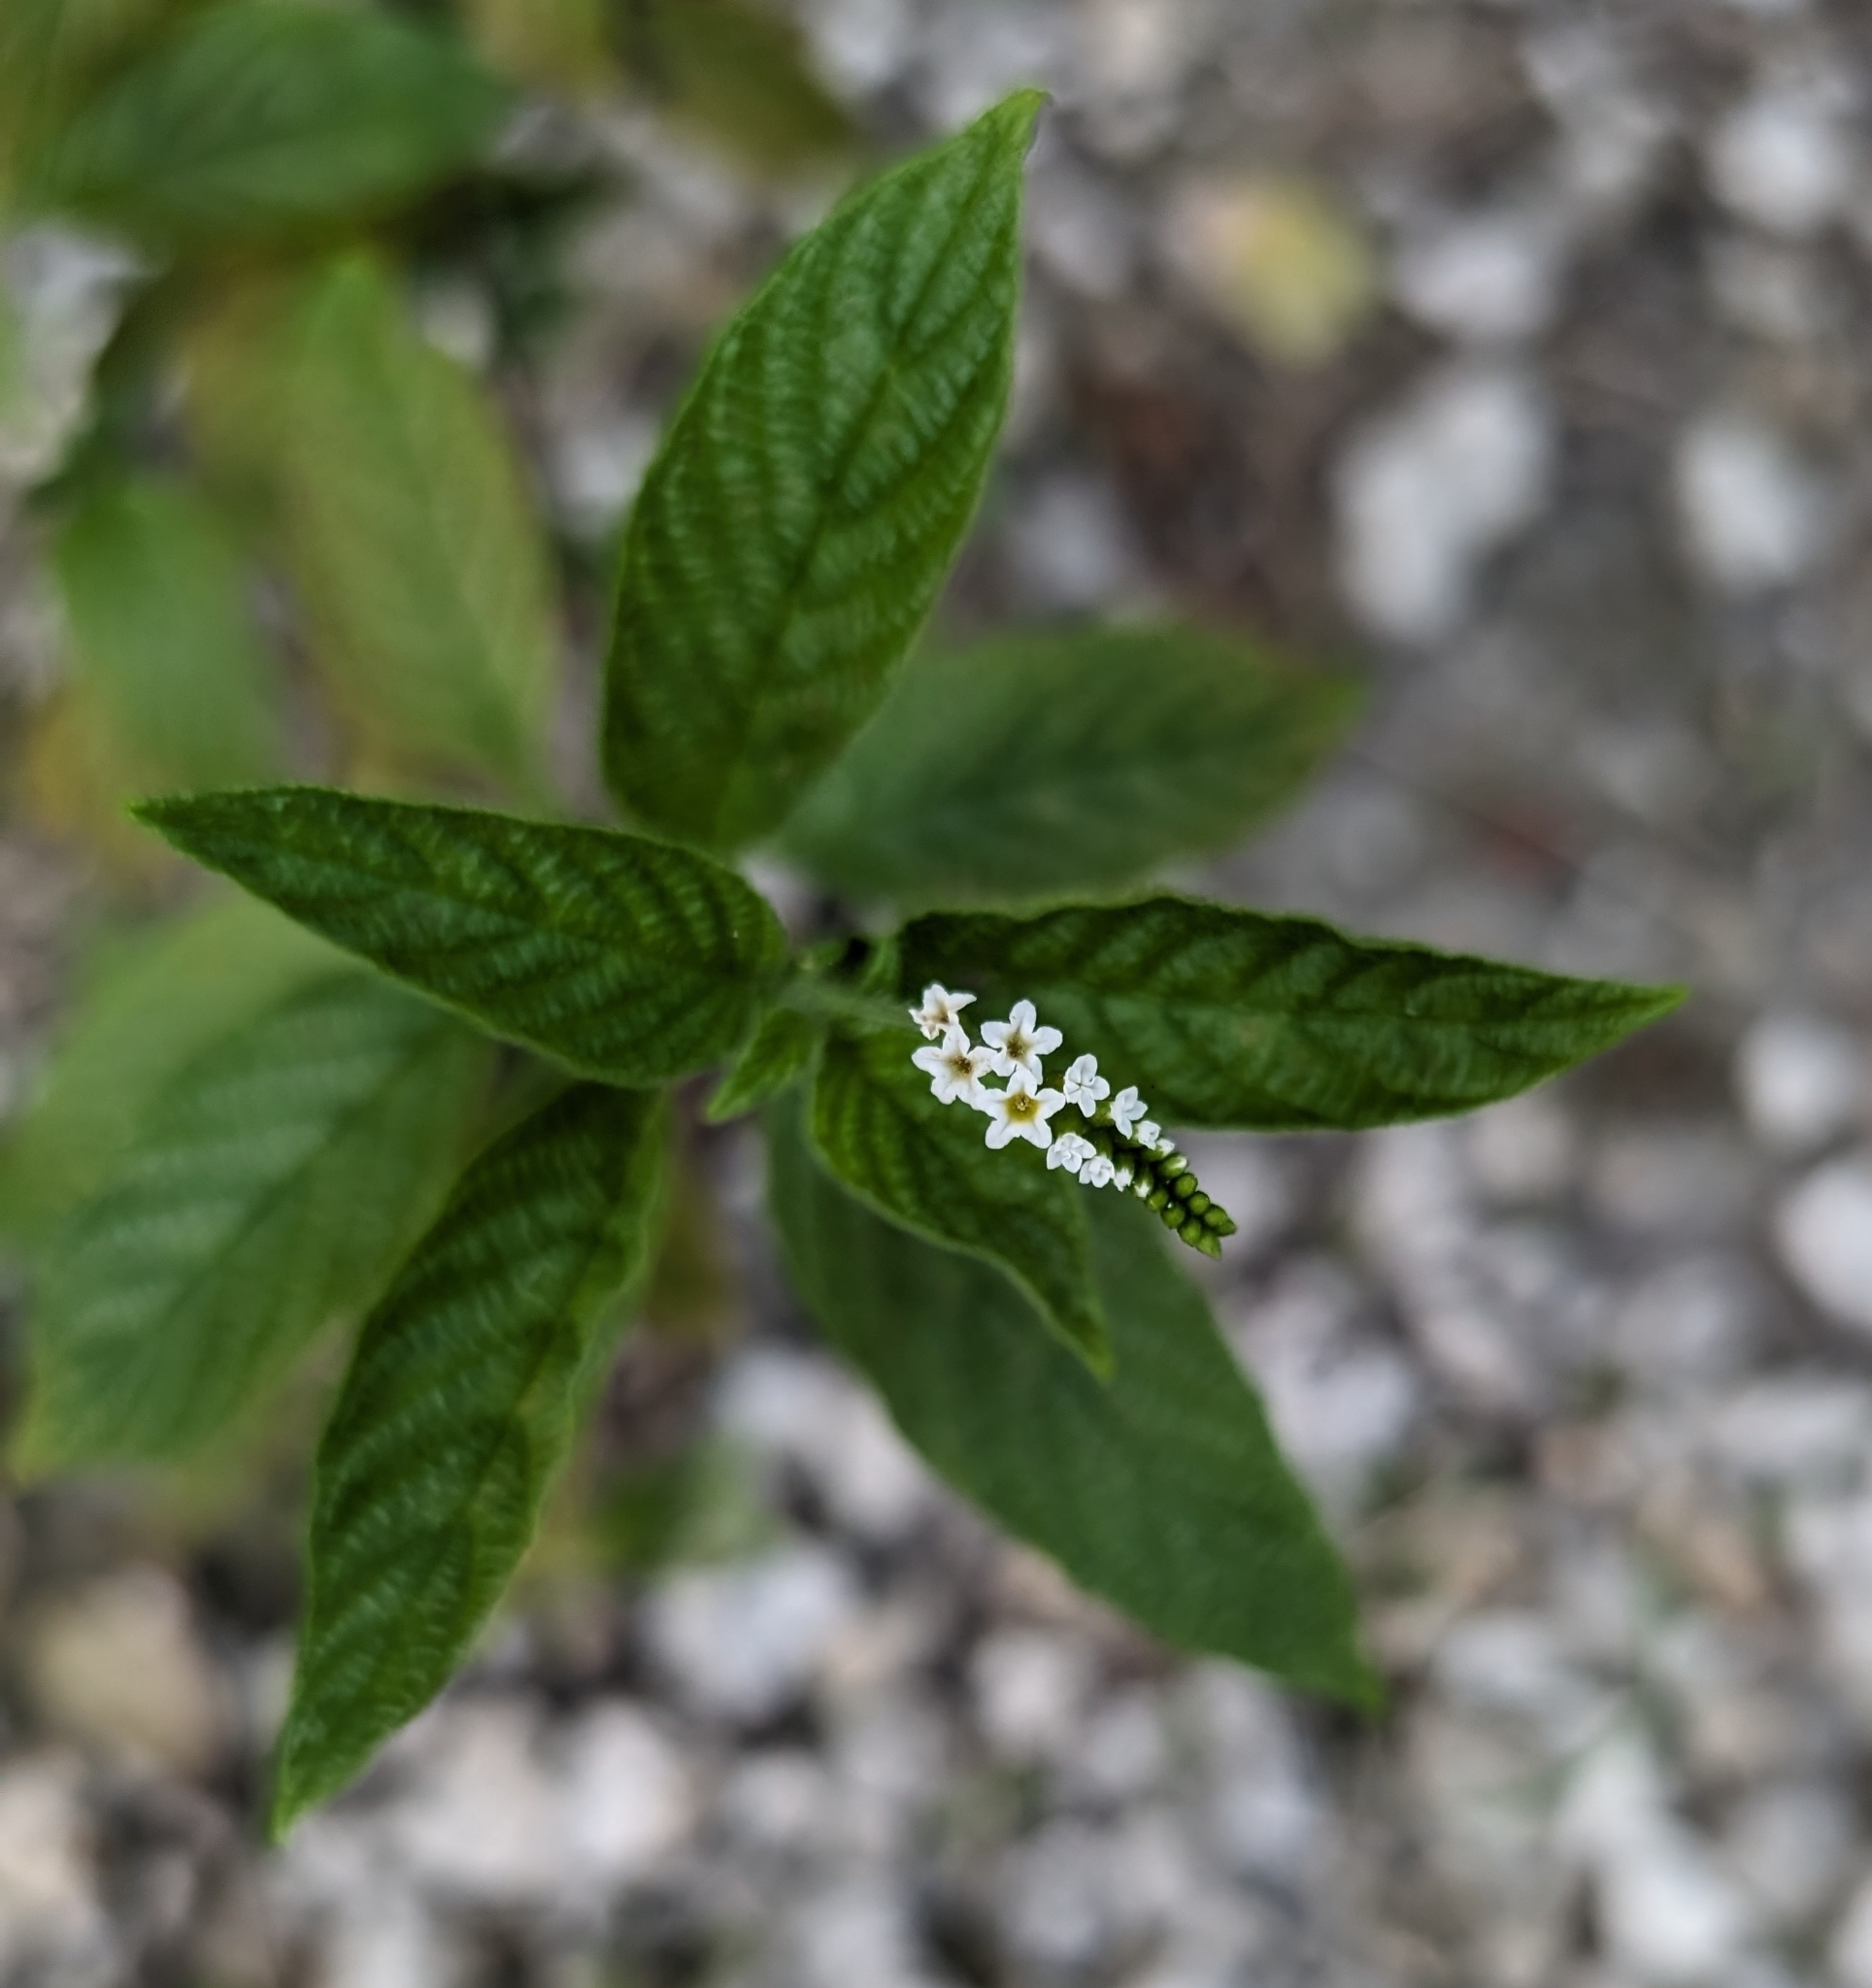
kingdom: Plantae
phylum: Tracheophyta
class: Magnoliopsida
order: Boraginales
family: Heliotropiaceae
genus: Heliotropium
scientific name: Heliotropium angiospermum
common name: Eye bright
